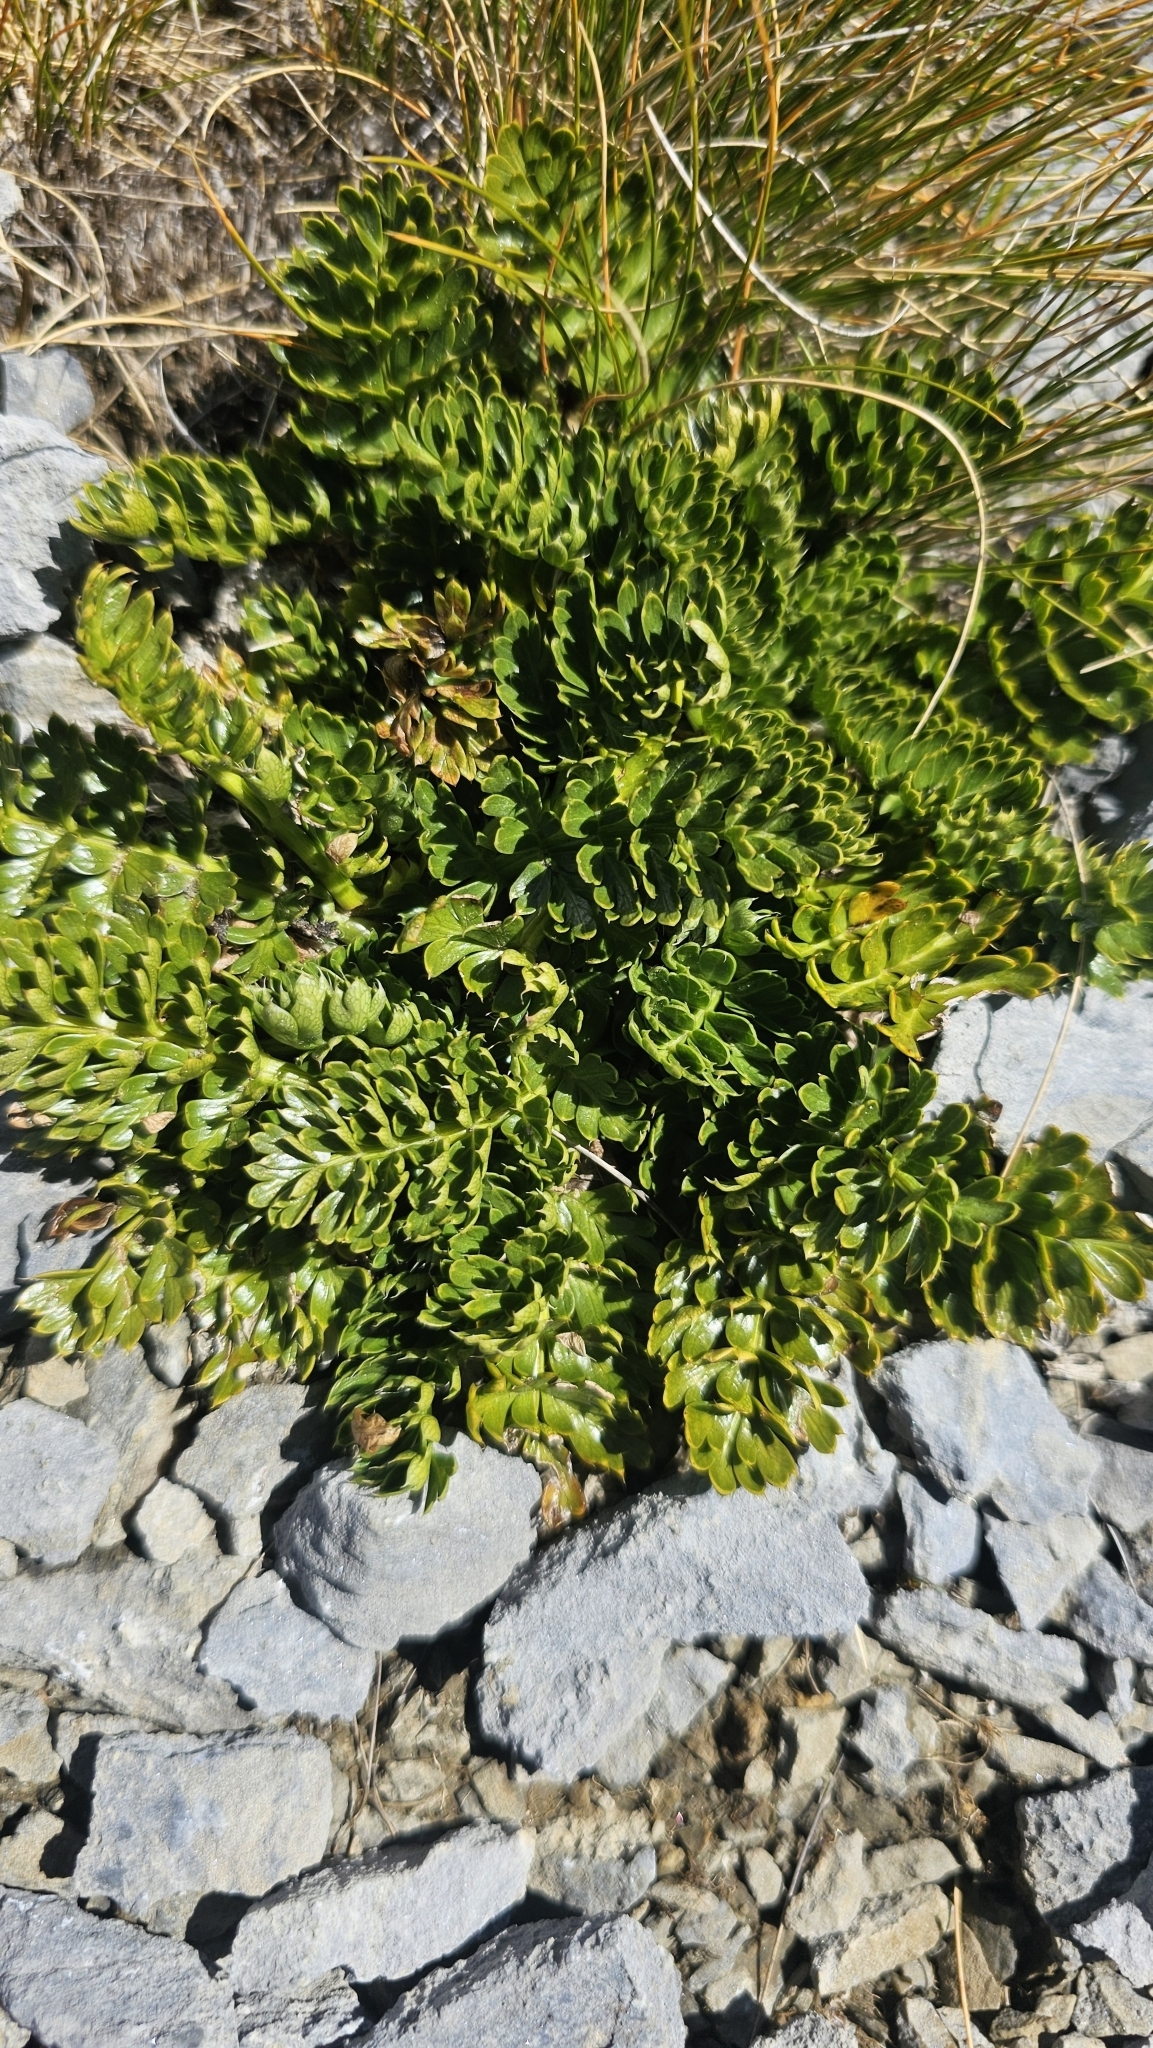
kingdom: Plantae
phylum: Tracheophyta
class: Magnoliopsida
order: Apiales
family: Apiaceae
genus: Anisotome
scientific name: Anisotome pilifera
